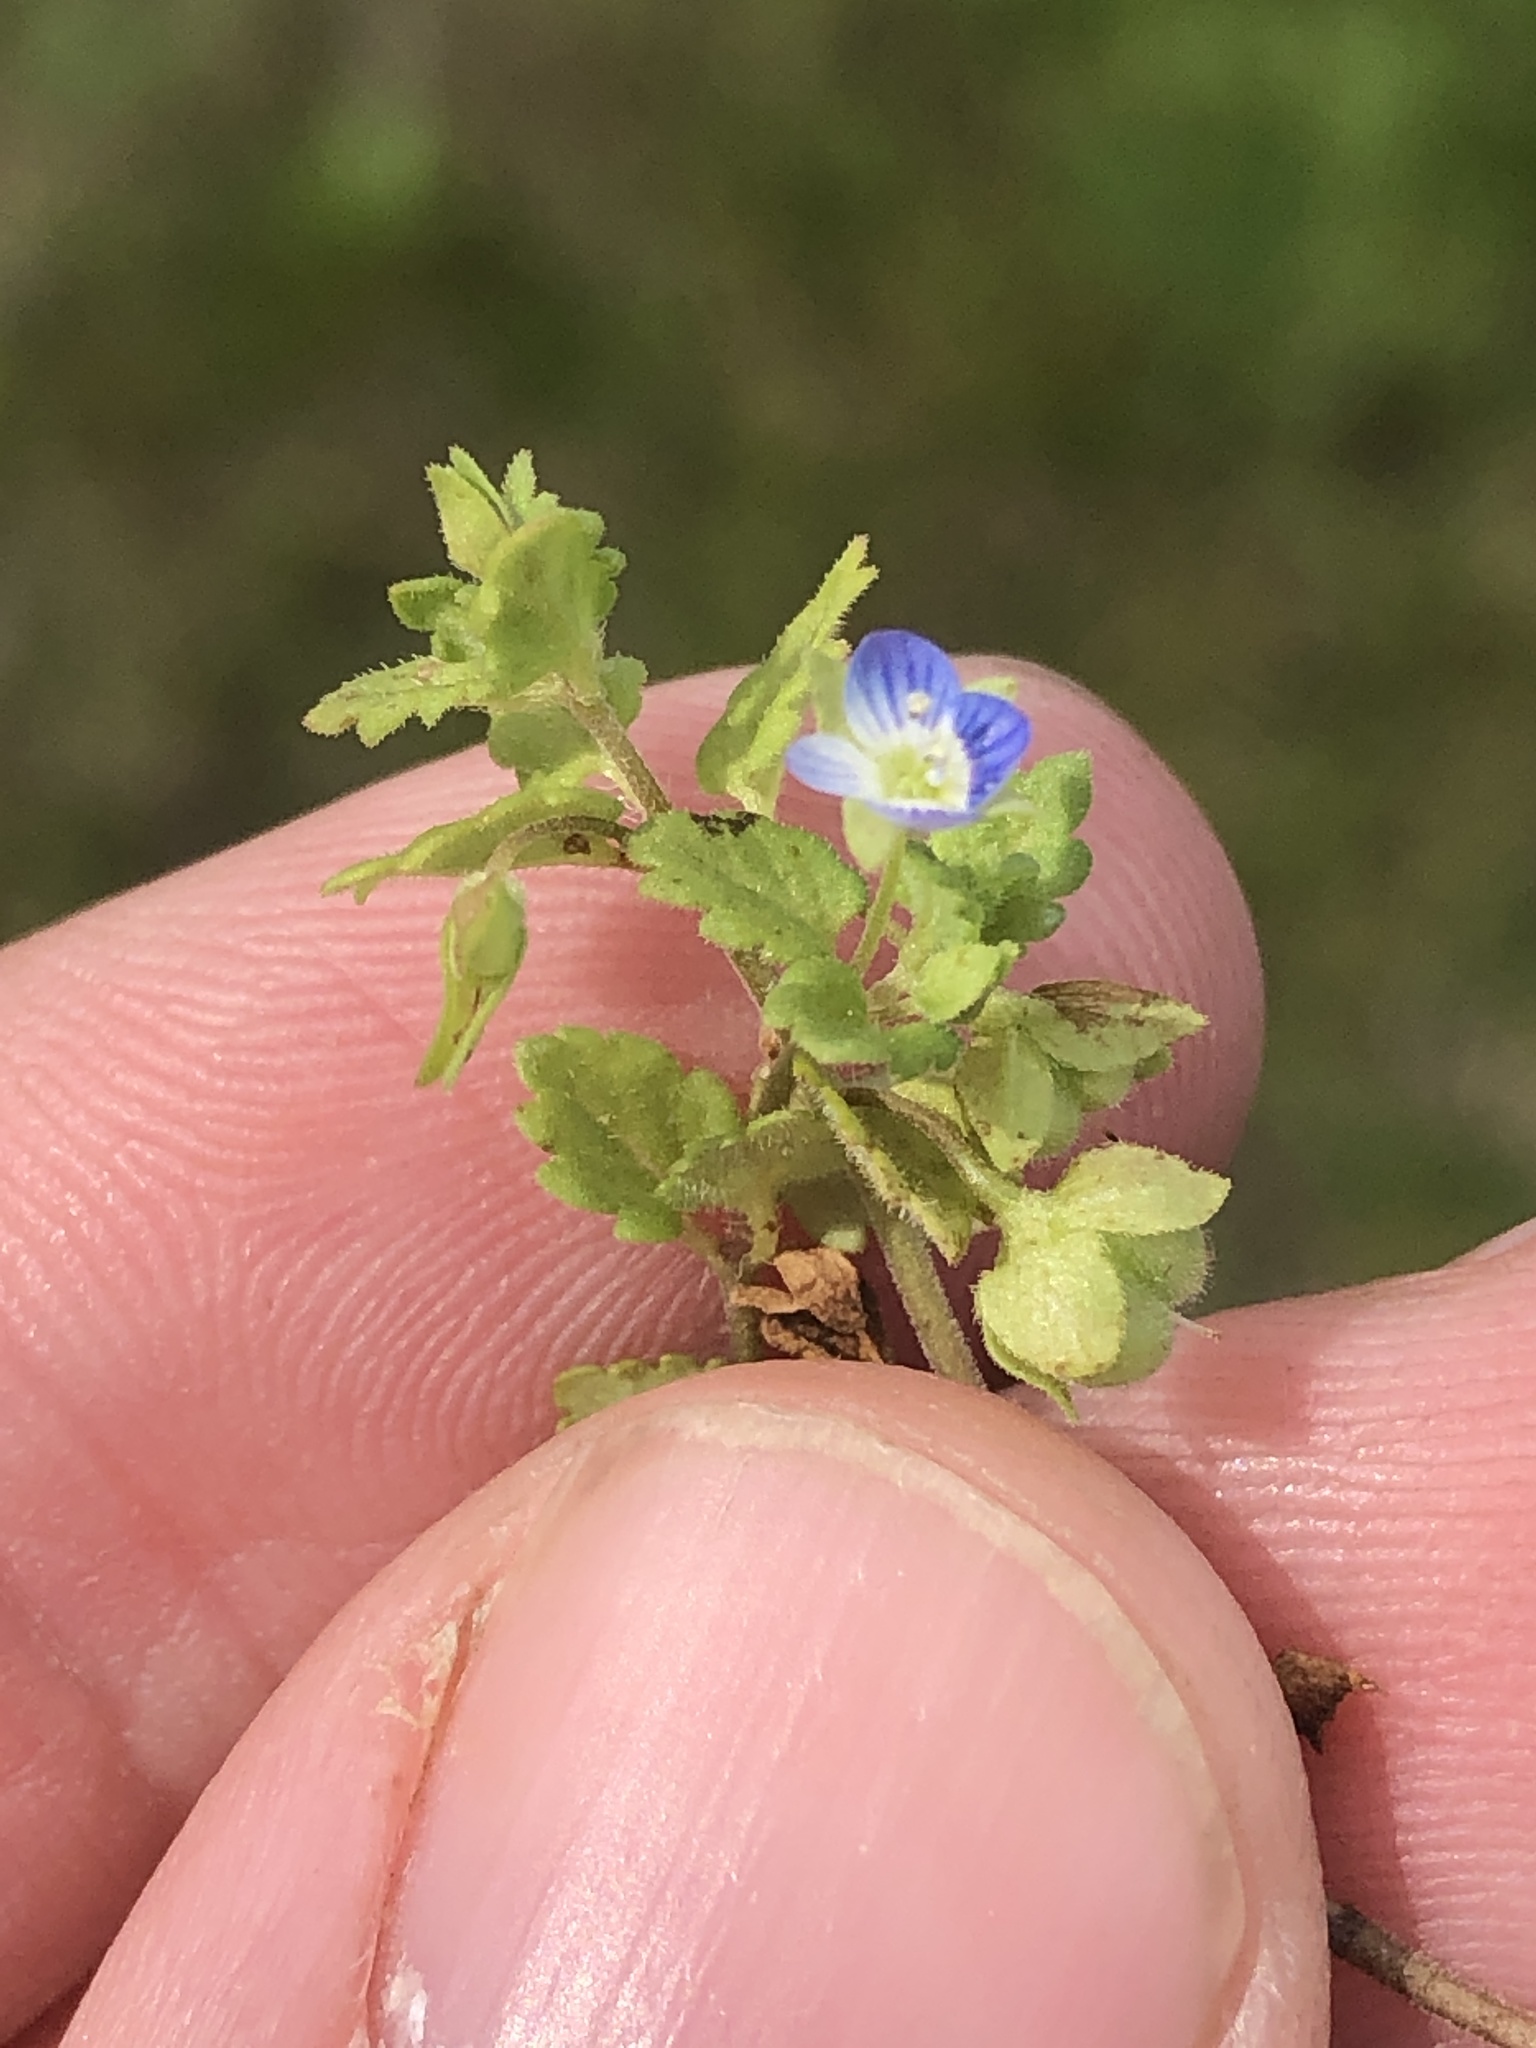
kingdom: Plantae
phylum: Tracheophyta
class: Magnoliopsida
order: Lamiales
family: Plantaginaceae
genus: Veronica
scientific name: Veronica polita
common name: Grey field-speedwell
